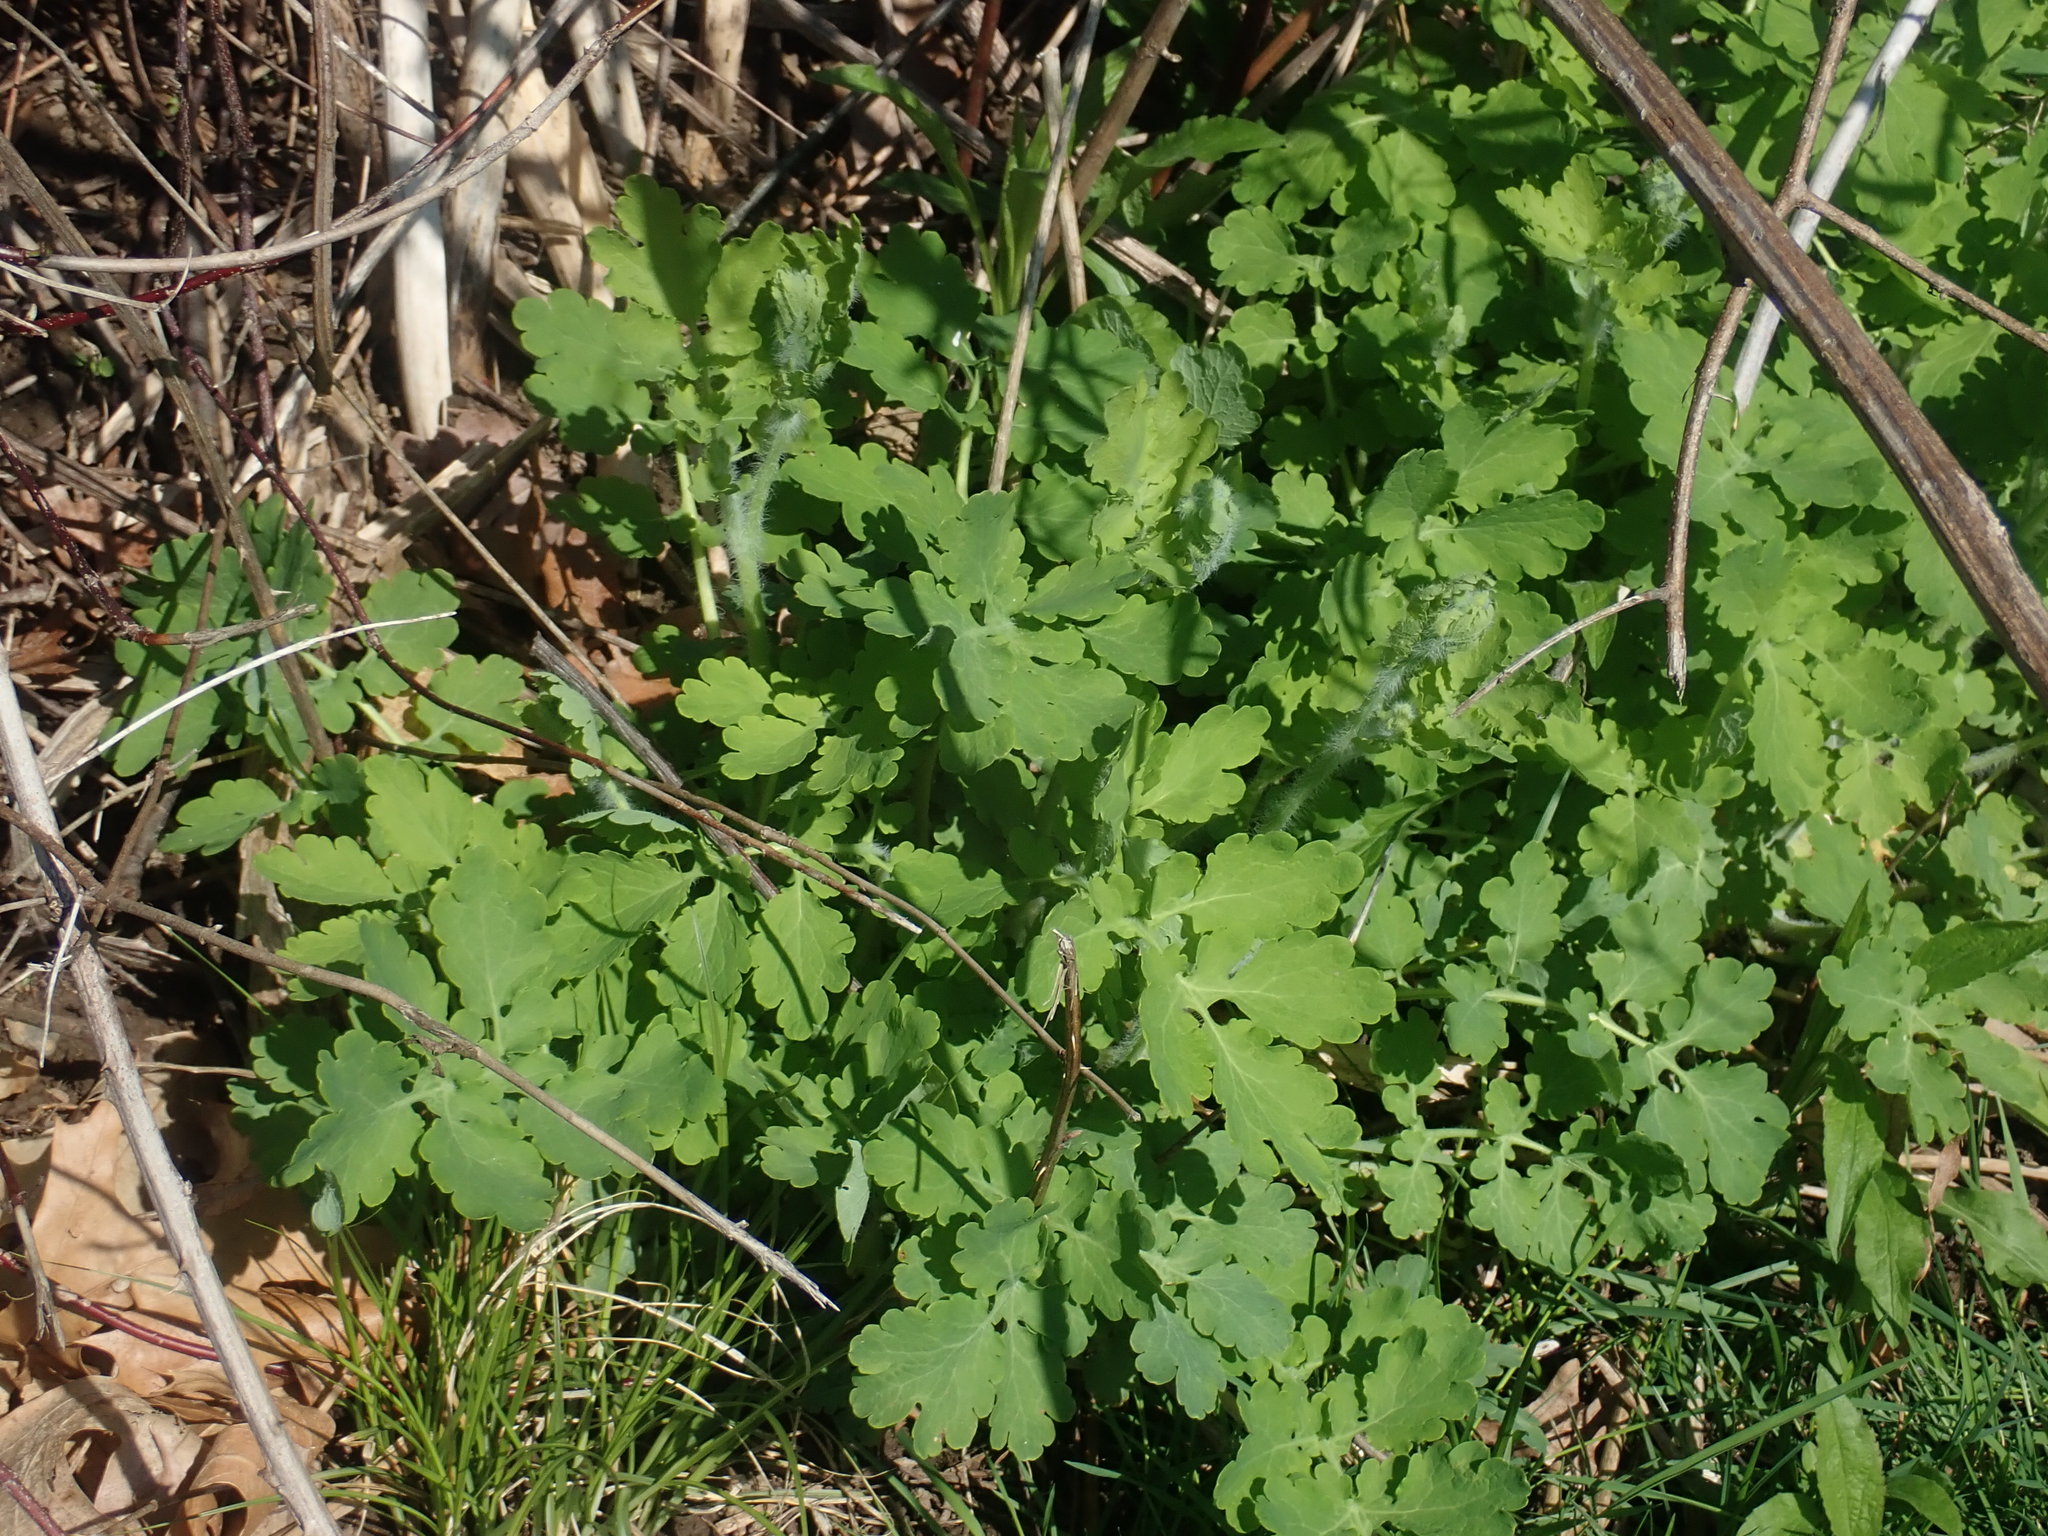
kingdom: Plantae
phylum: Tracheophyta
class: Magnoliopsida
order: Ranunculales
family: Papaveraceae
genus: Chelidonium
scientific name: Chelidonium majus
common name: Greater celandine
